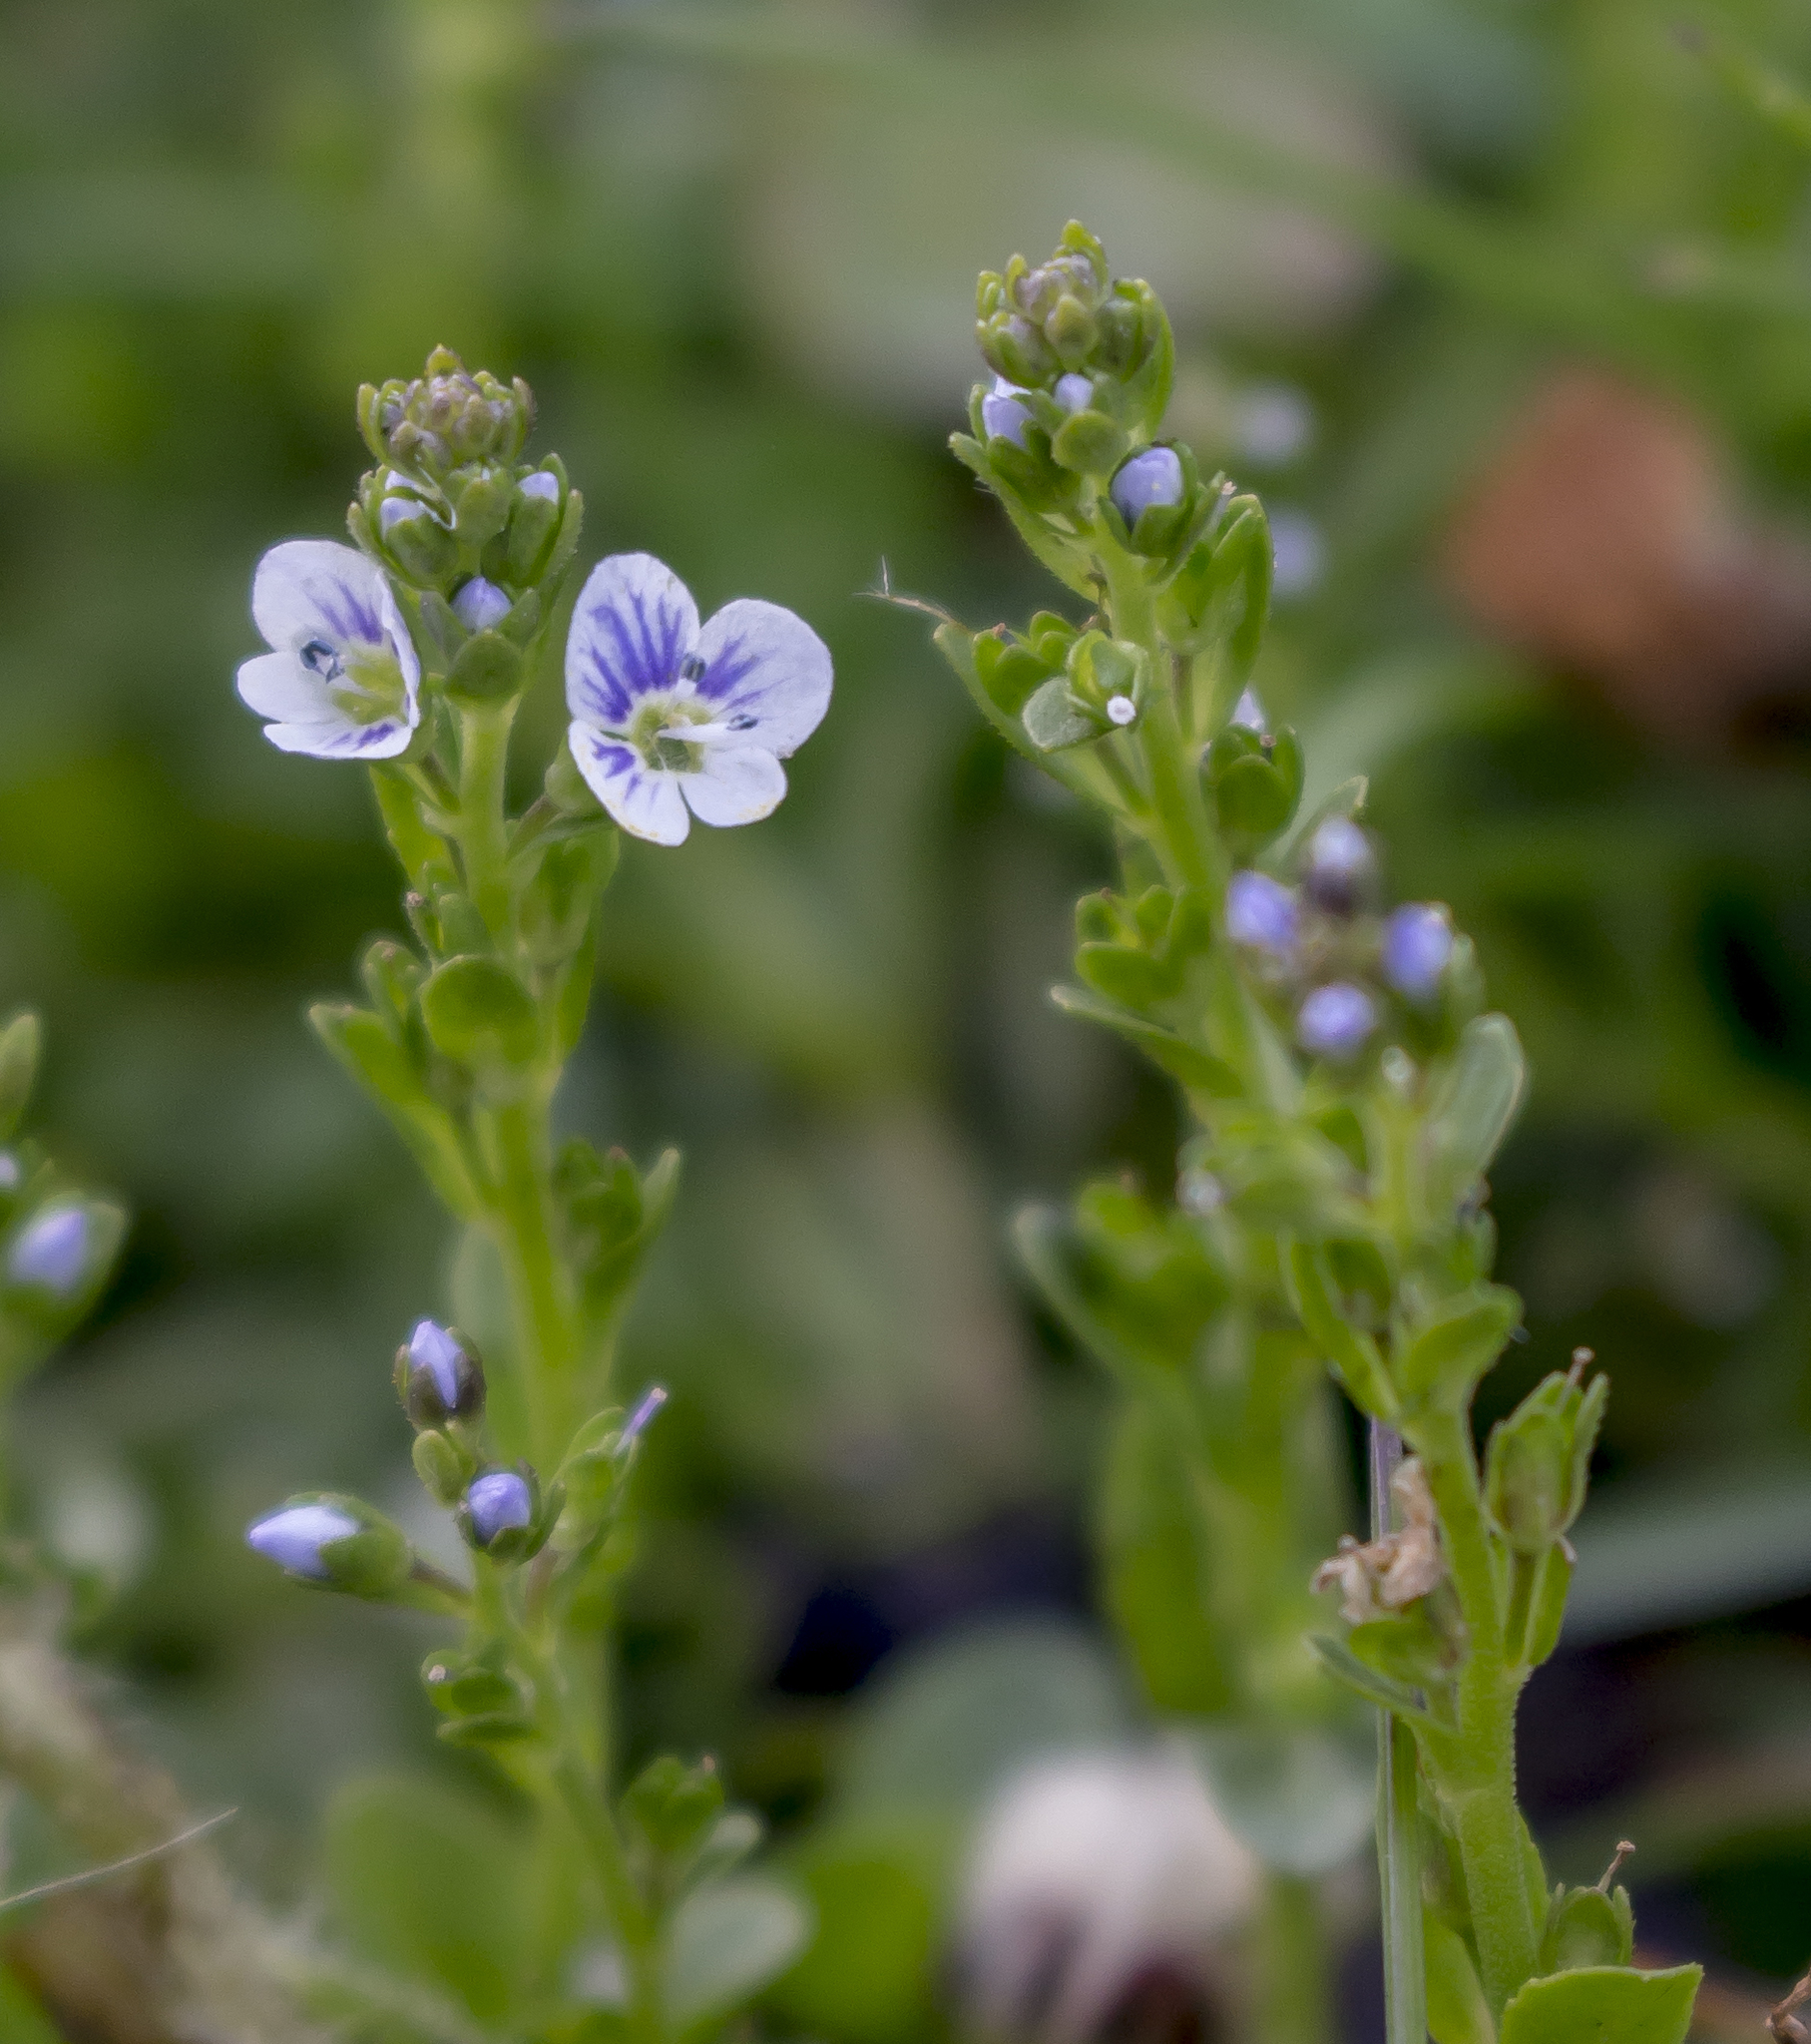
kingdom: Plantae
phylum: Tracheophyta
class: Magnoliopsida
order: Lamiales
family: Plantaginaceae
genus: Veronica
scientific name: Veronica serpyllifolia
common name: Thyme-leaved speedwell
